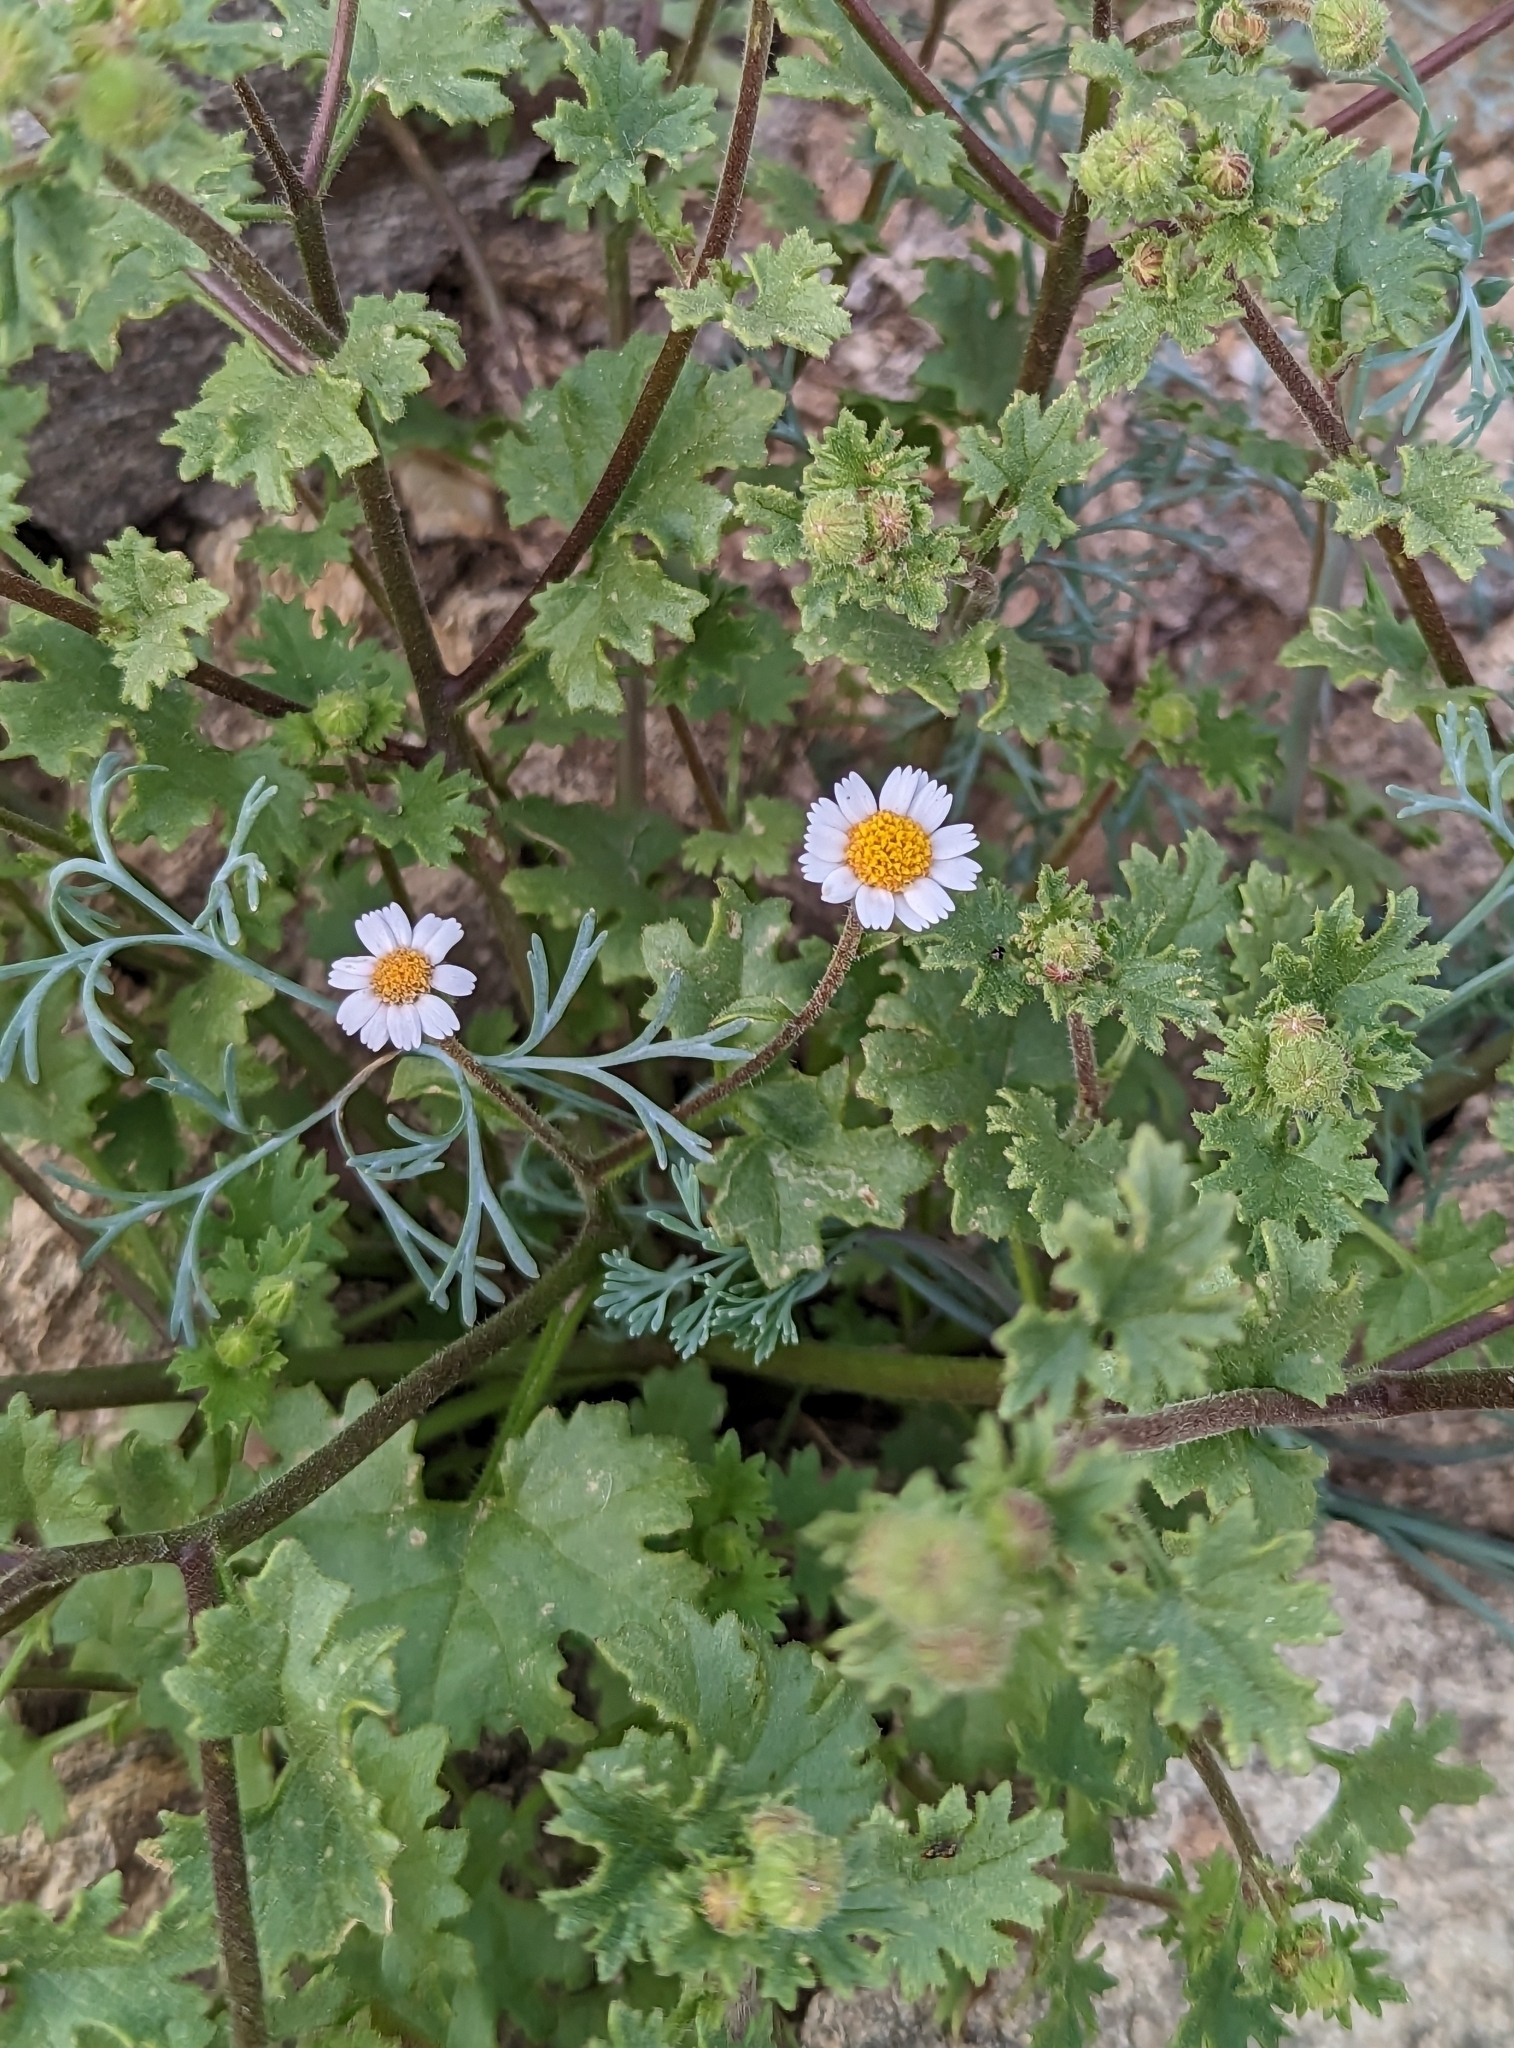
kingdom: Plantae
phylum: Tracheophyta
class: Magnoliopsida
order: Asterales
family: Asteraceae
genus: Laphamia
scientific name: Laphamia emoryi
